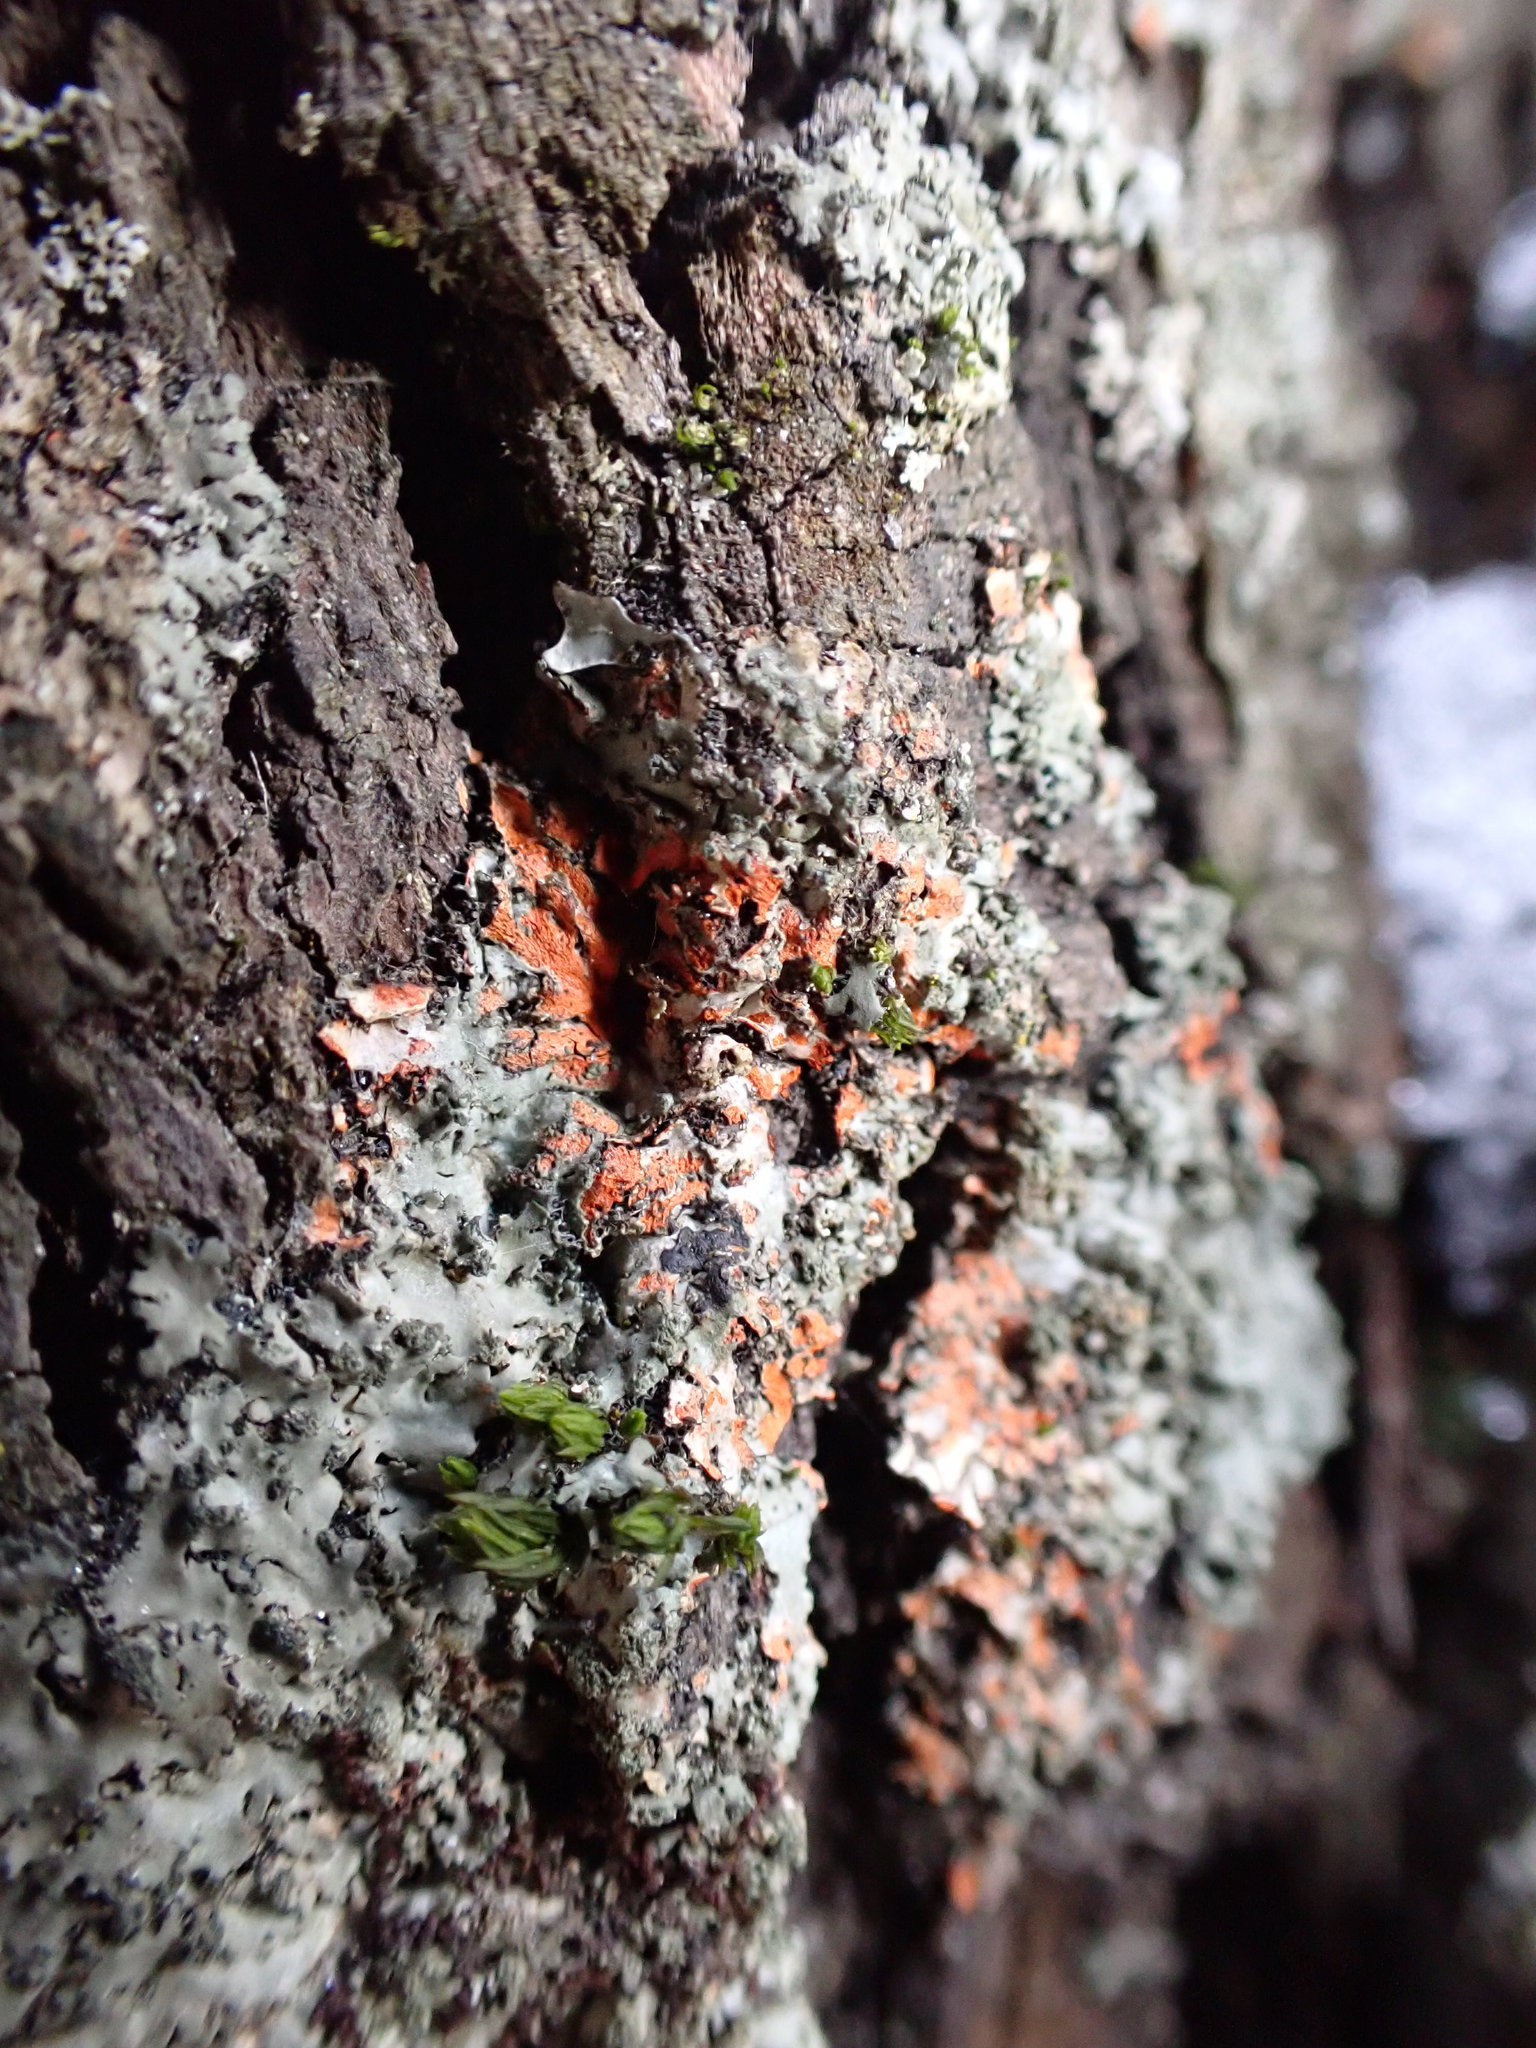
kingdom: Fungi
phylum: Ascomycota
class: Lecanoromycetes
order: Caliciales
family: Physciaceae
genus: Phaeophyscia
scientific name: Phaeophyscia rubropulchra
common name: Orange-cored shadow lichen
